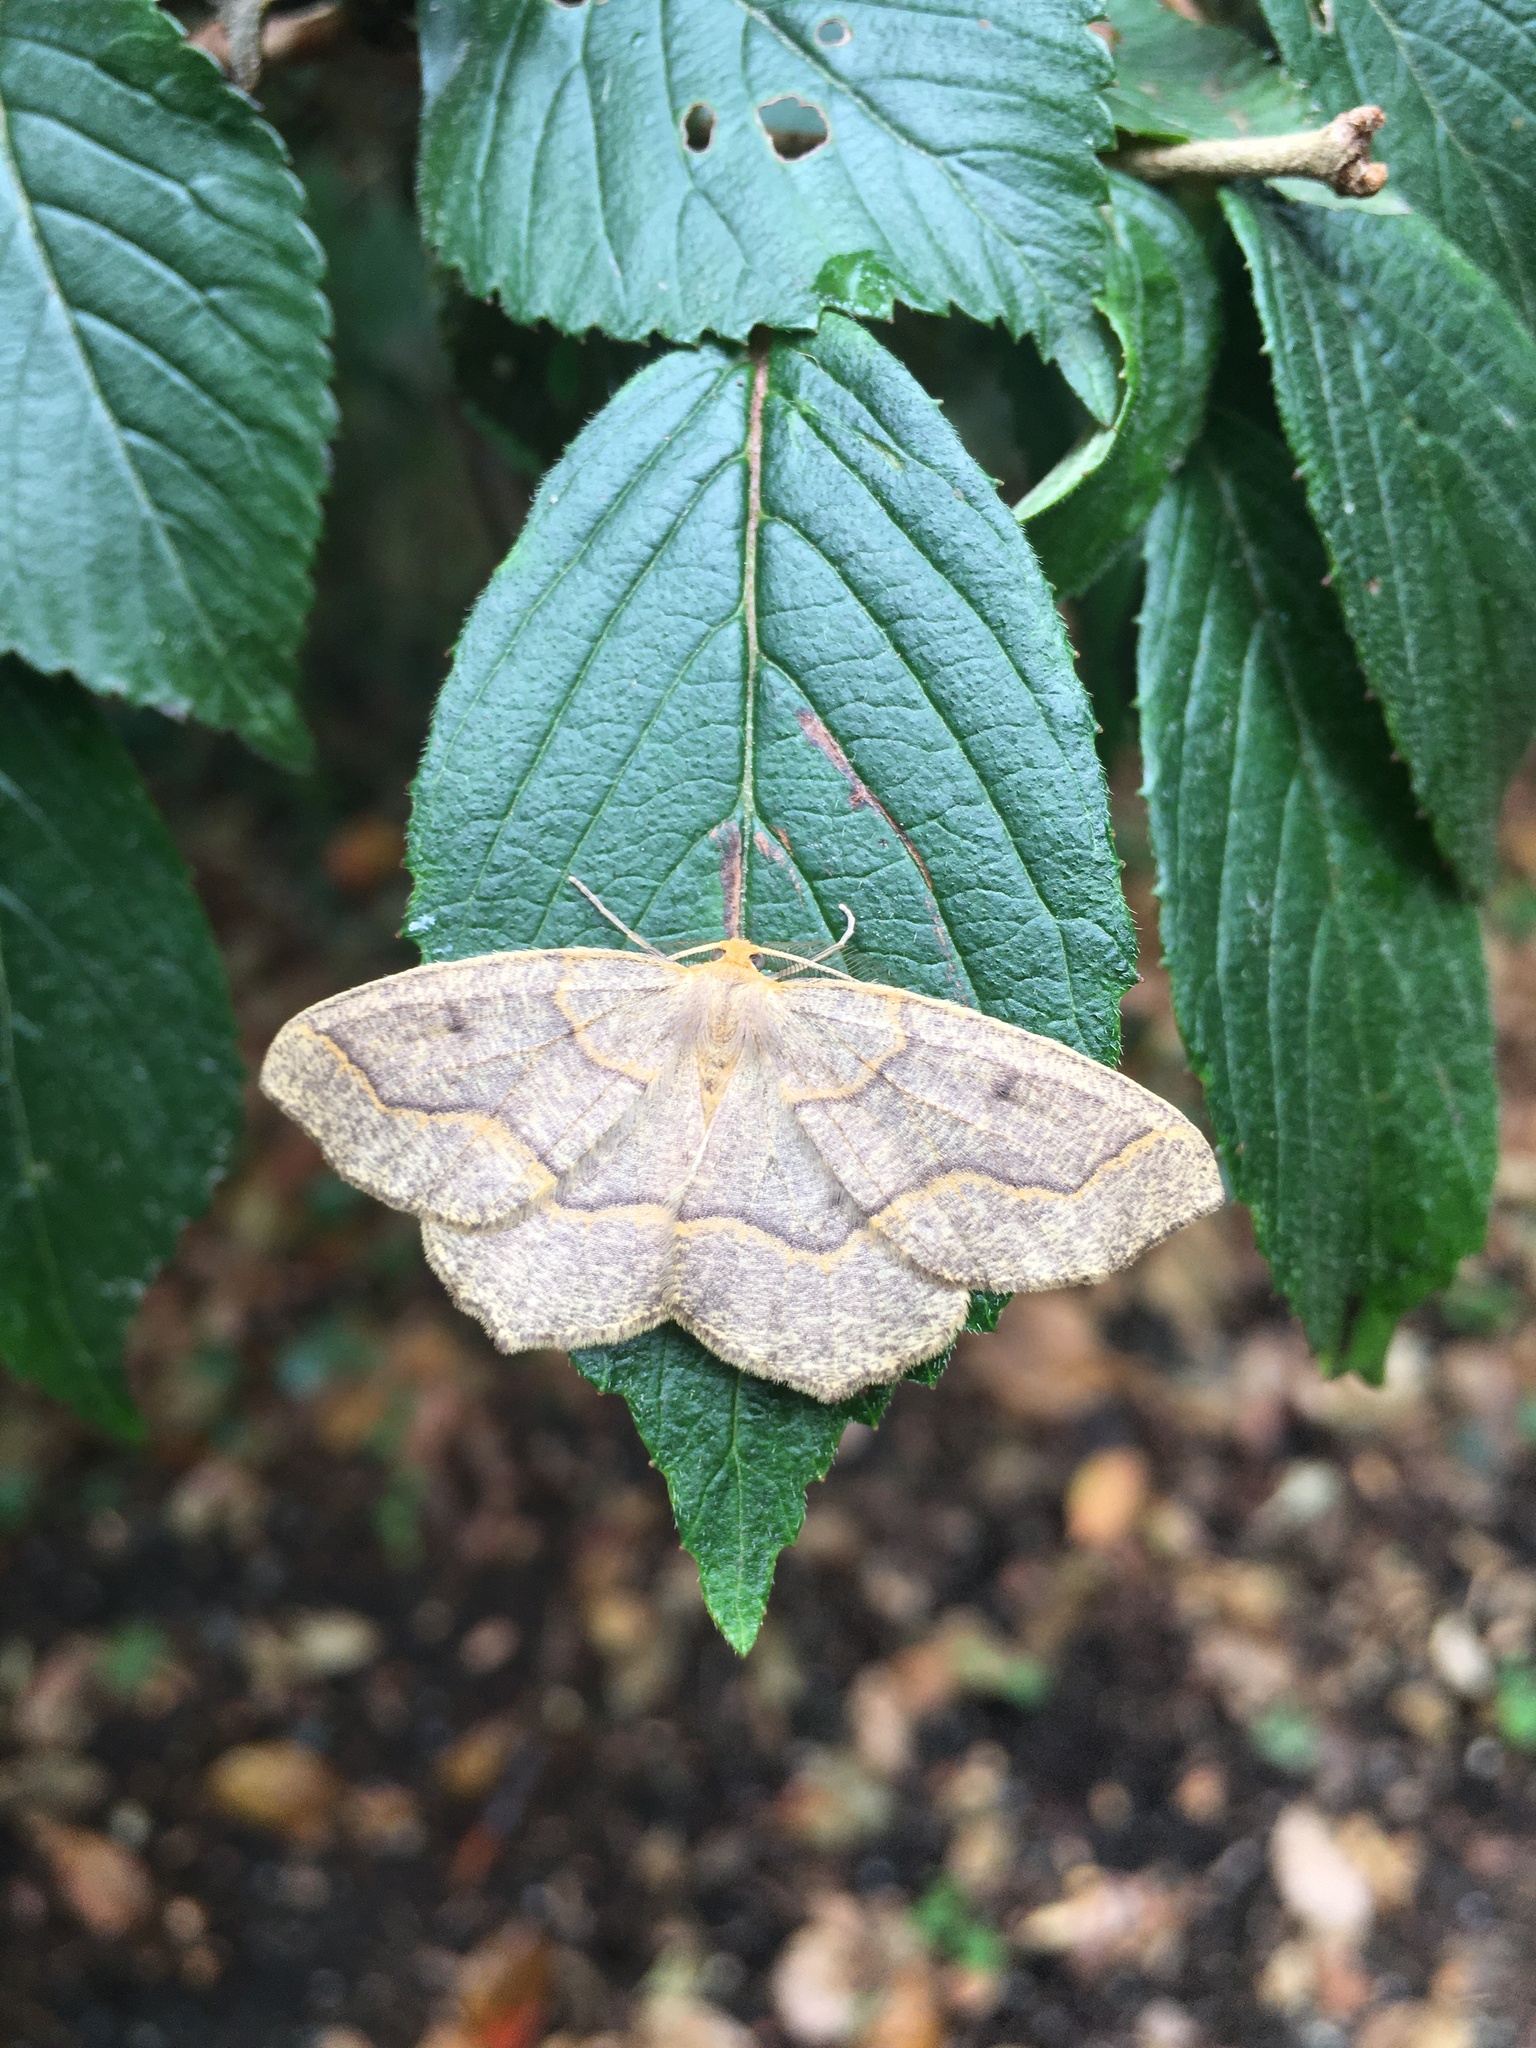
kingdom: Animalia
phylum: Arthropoda
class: Insecta
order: Lepidoptera
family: Geometridae
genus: Lambdina
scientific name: Lambdina fiscellaria
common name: Hemlock looper
